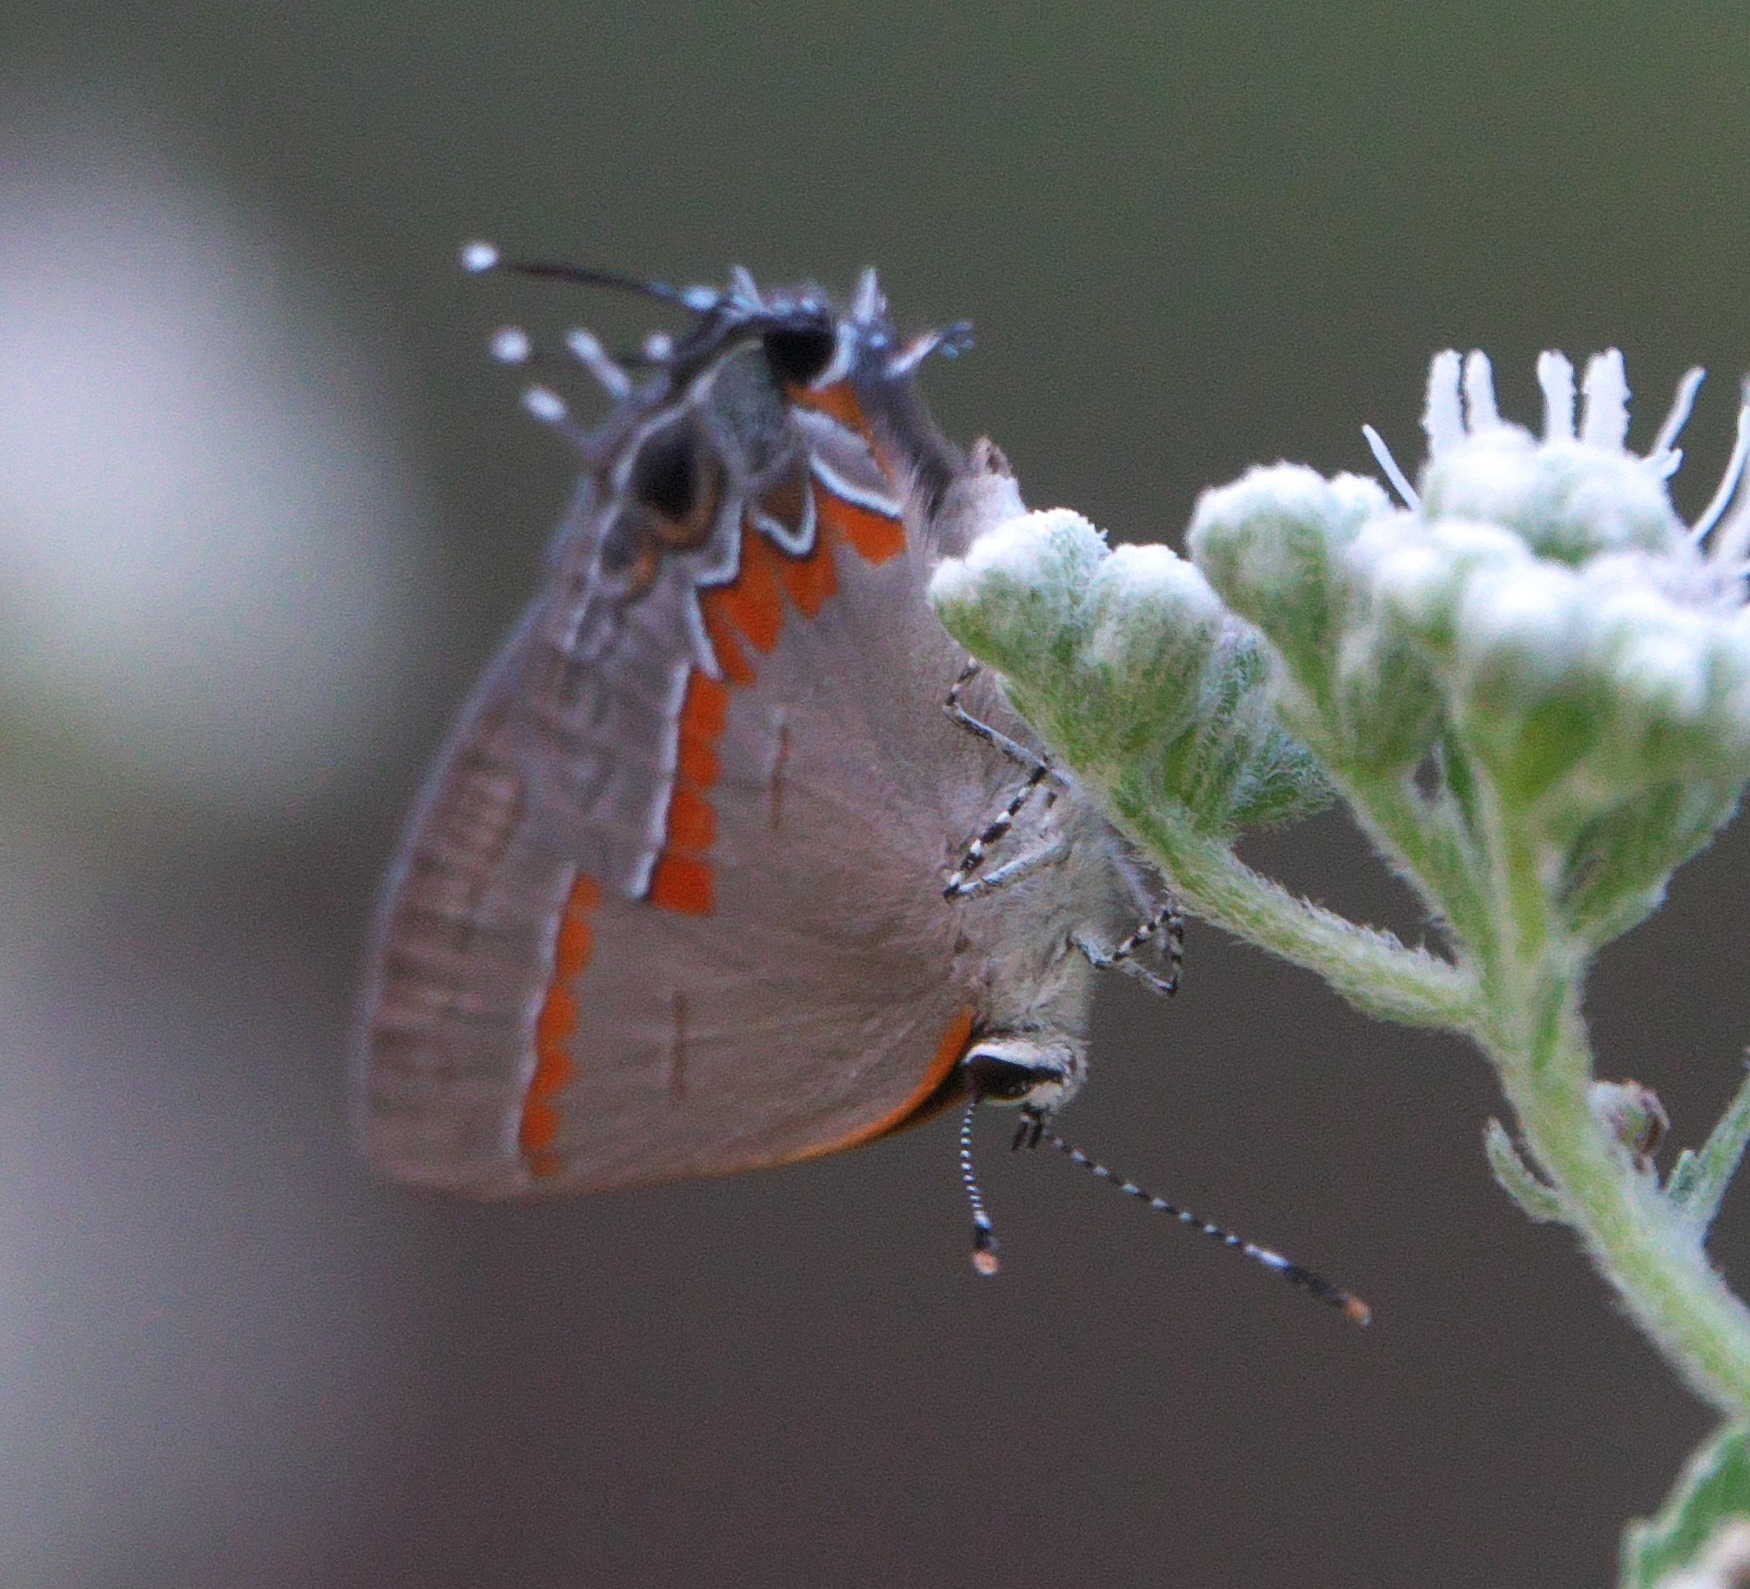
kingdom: Animalia
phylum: Arthropoda
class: Insecta
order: Lepidoptera
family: Lycaenidae
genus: Calycopis
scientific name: Calycopis cecrops
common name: Red-banded hairstreak
